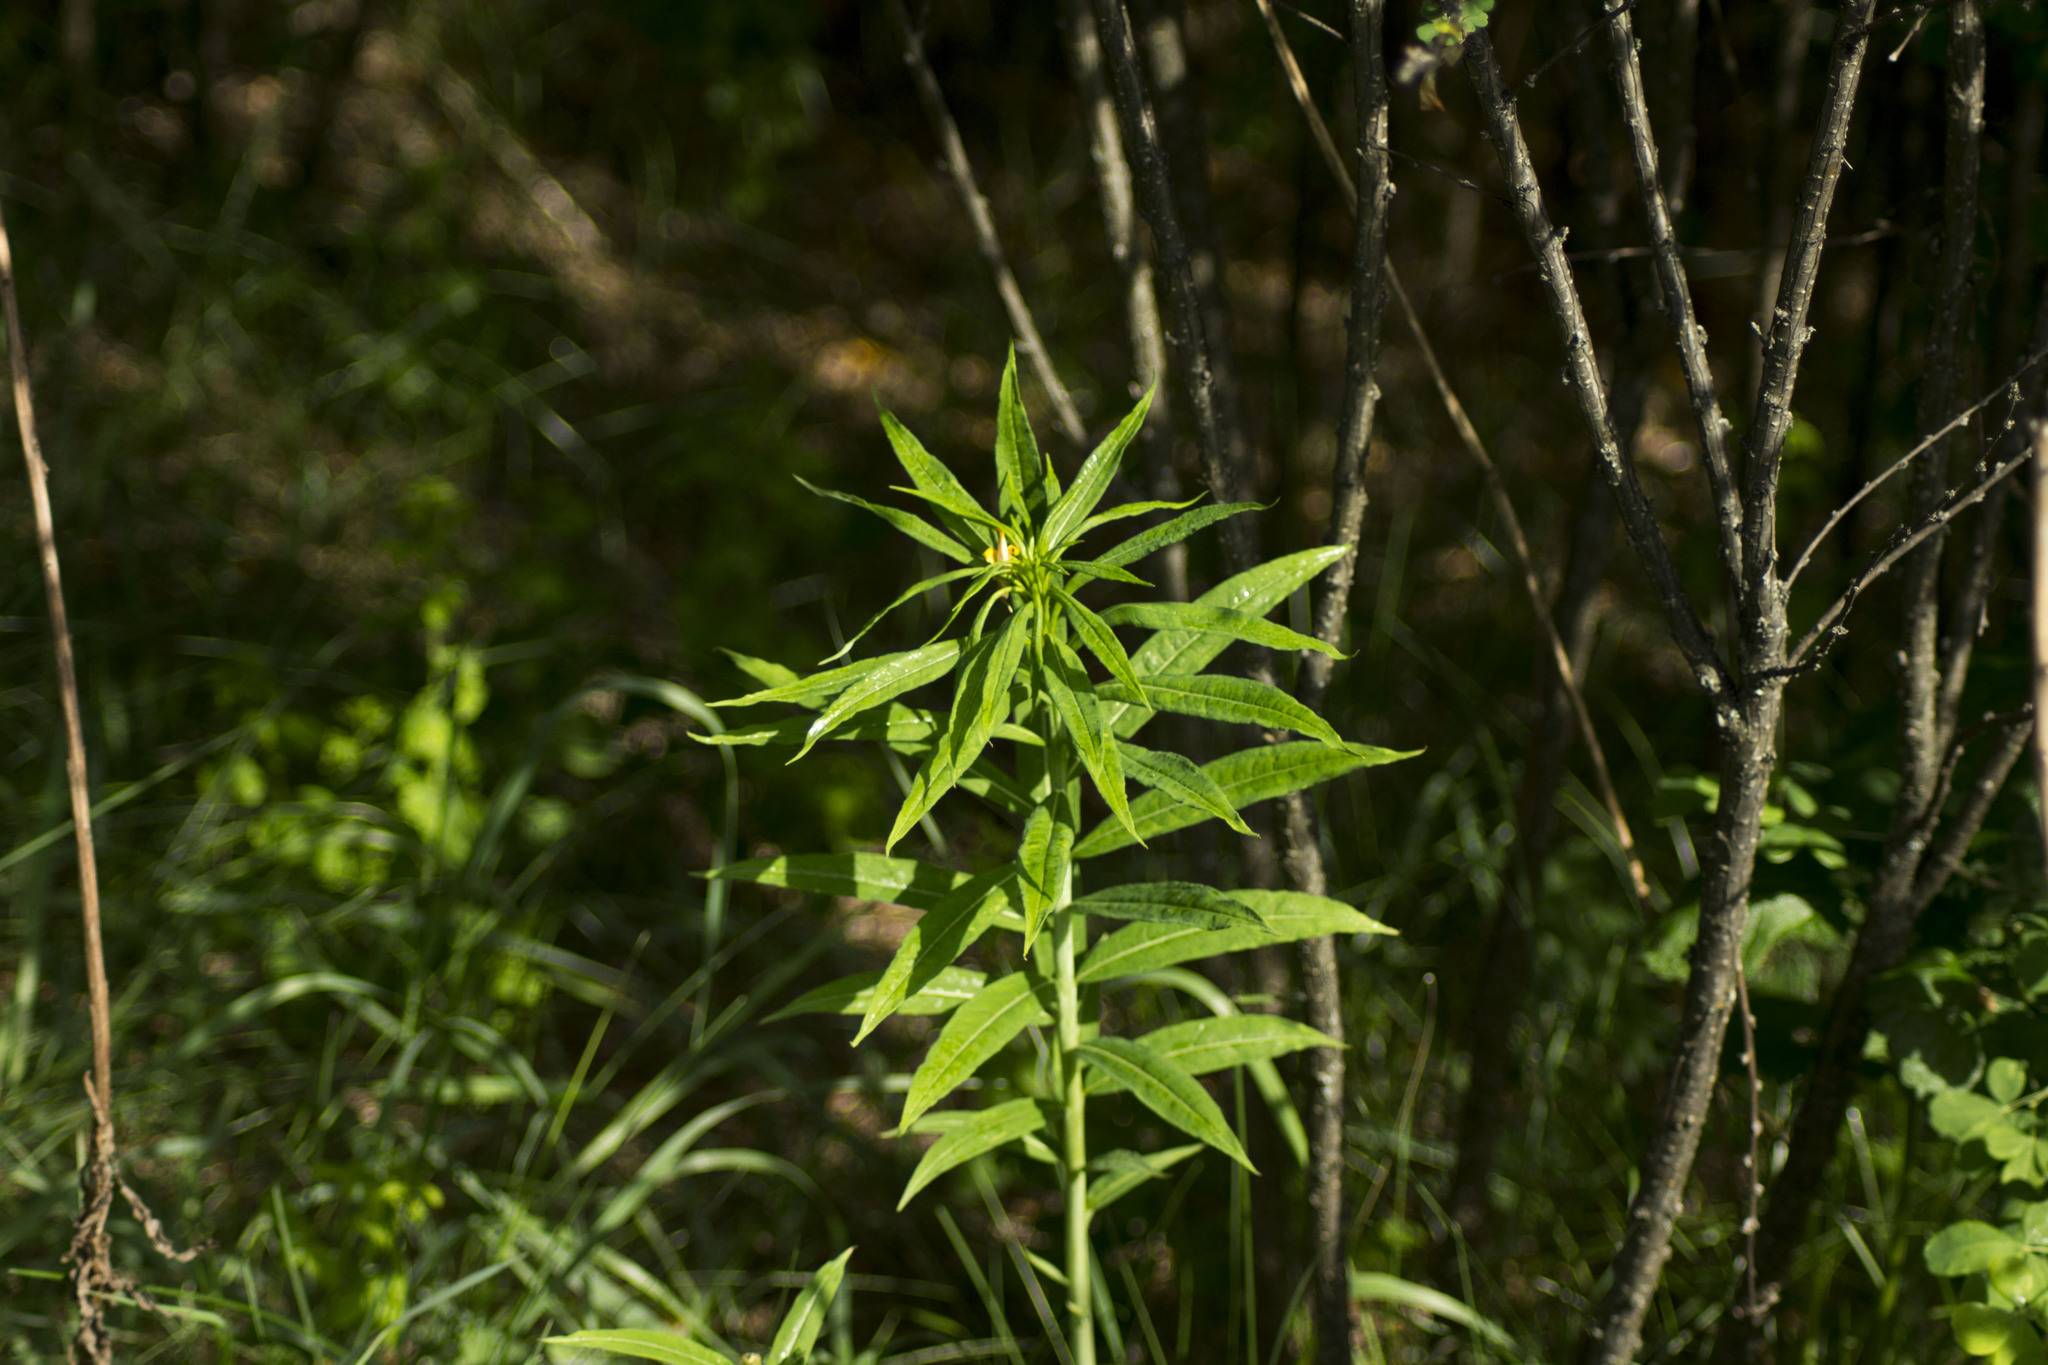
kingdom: Plantae
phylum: Tracheophyta
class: Magnoliopsida
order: Myrtales
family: Onagraceae
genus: Chamaenerion
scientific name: Chamaenerion angustifolium
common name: Fireweed
